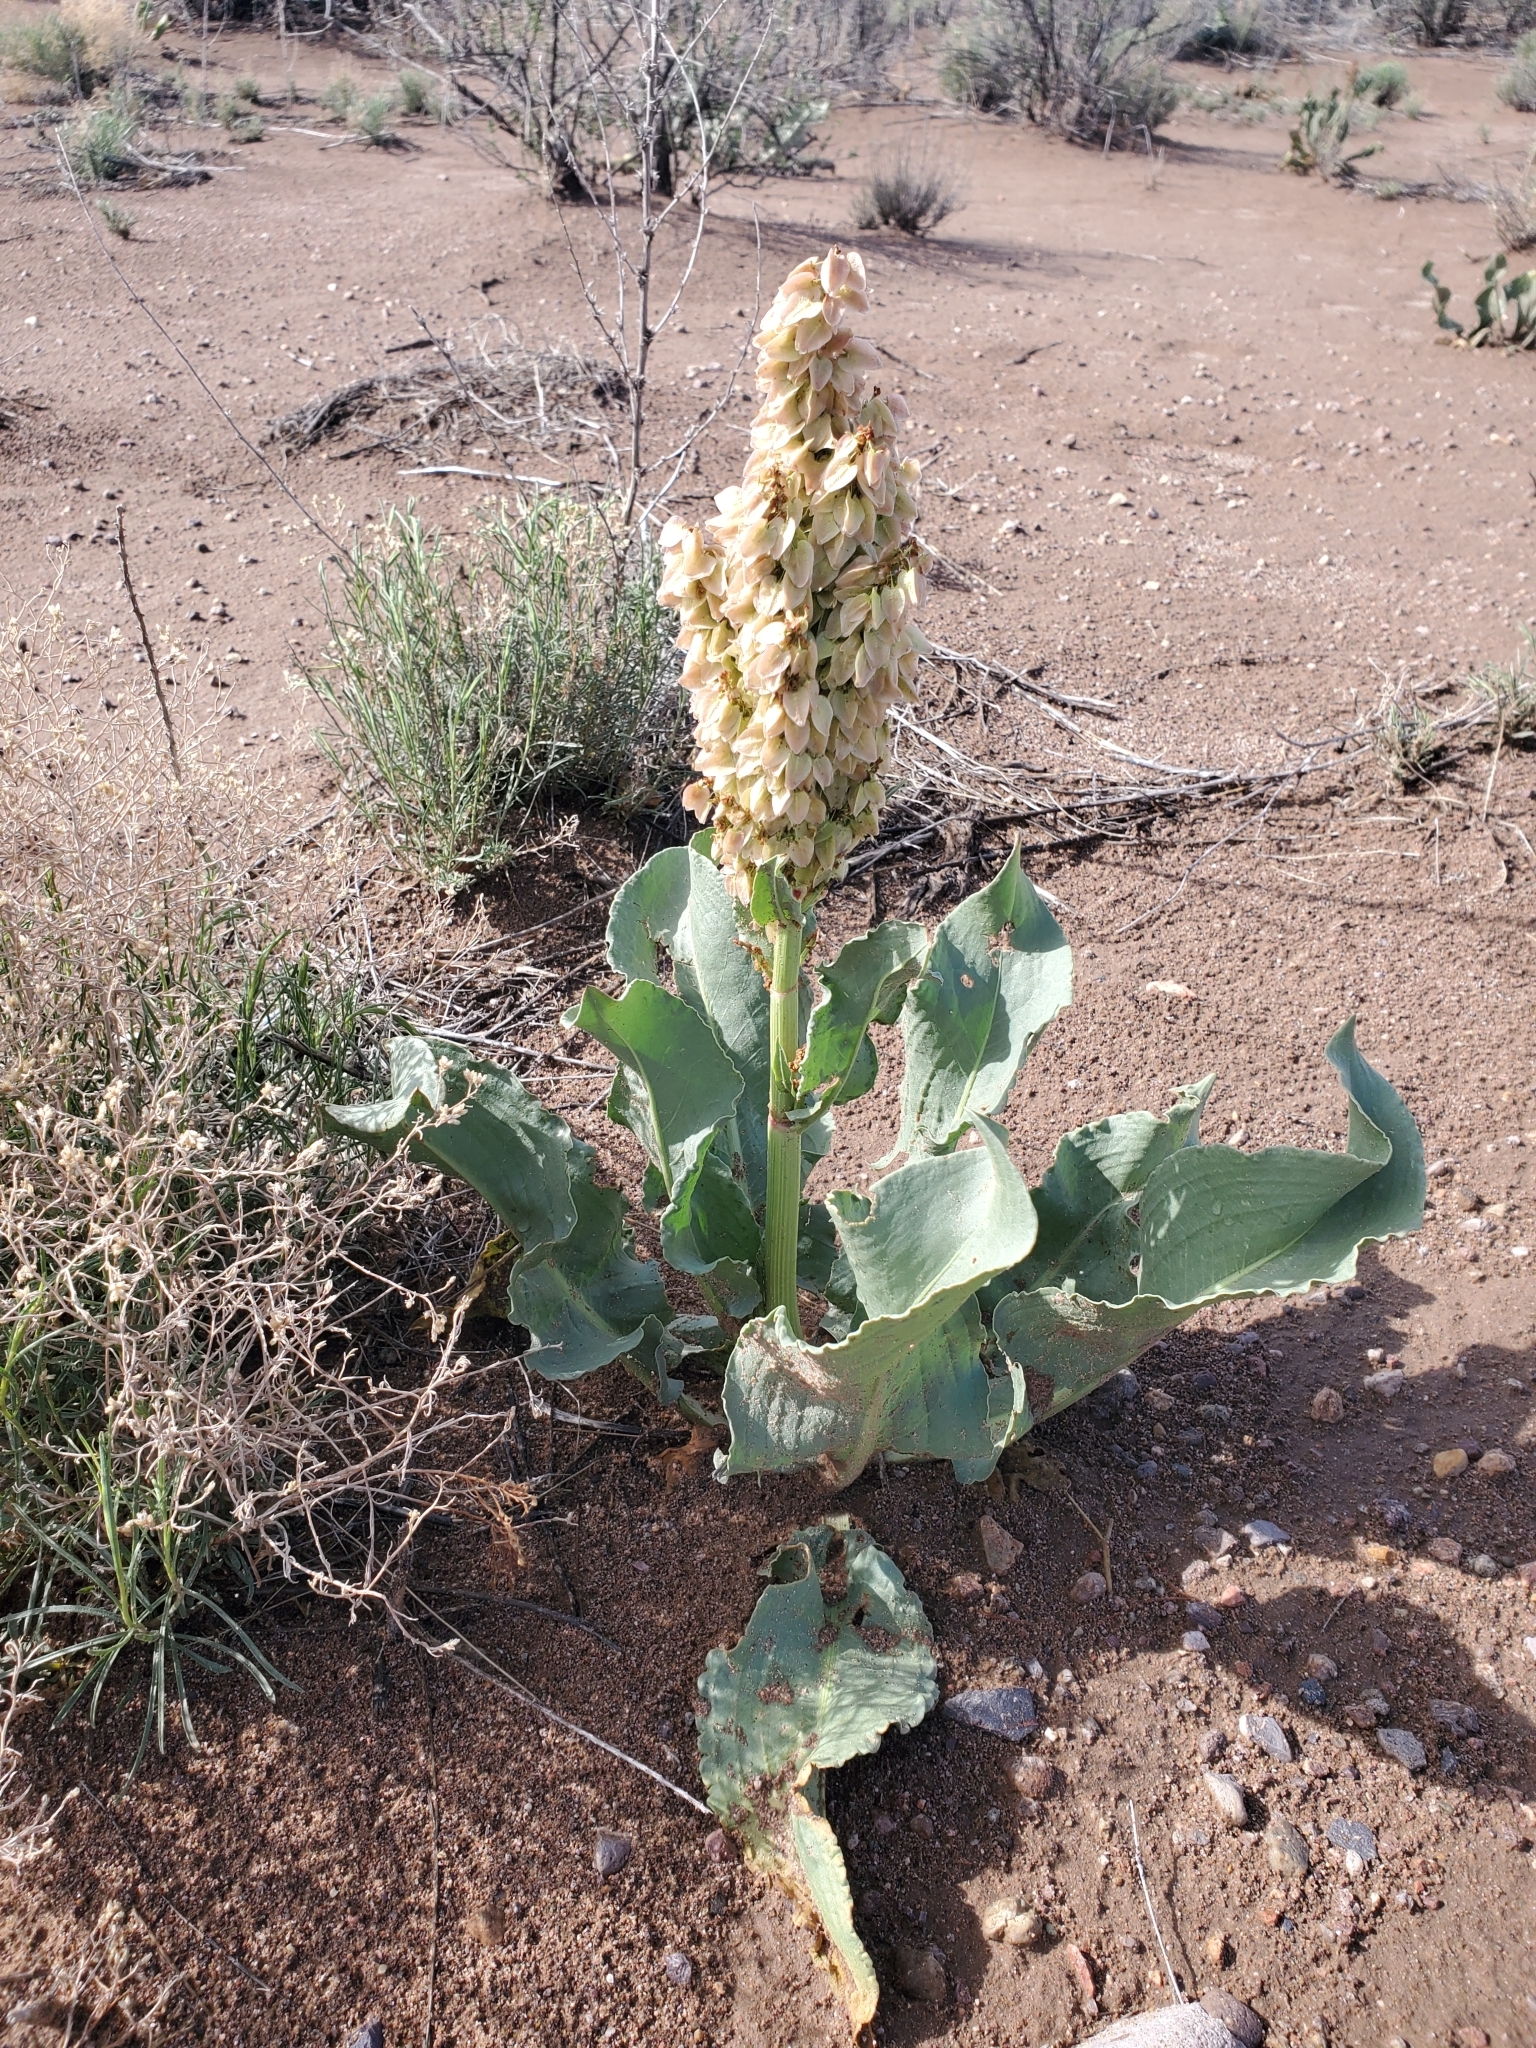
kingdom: Plantae
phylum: Tracheophyta
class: Magnoliopsida
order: Caryophyllales
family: Polygonaceae
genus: Rumex
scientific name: Rumex hymenosepalus
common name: Ganagra
